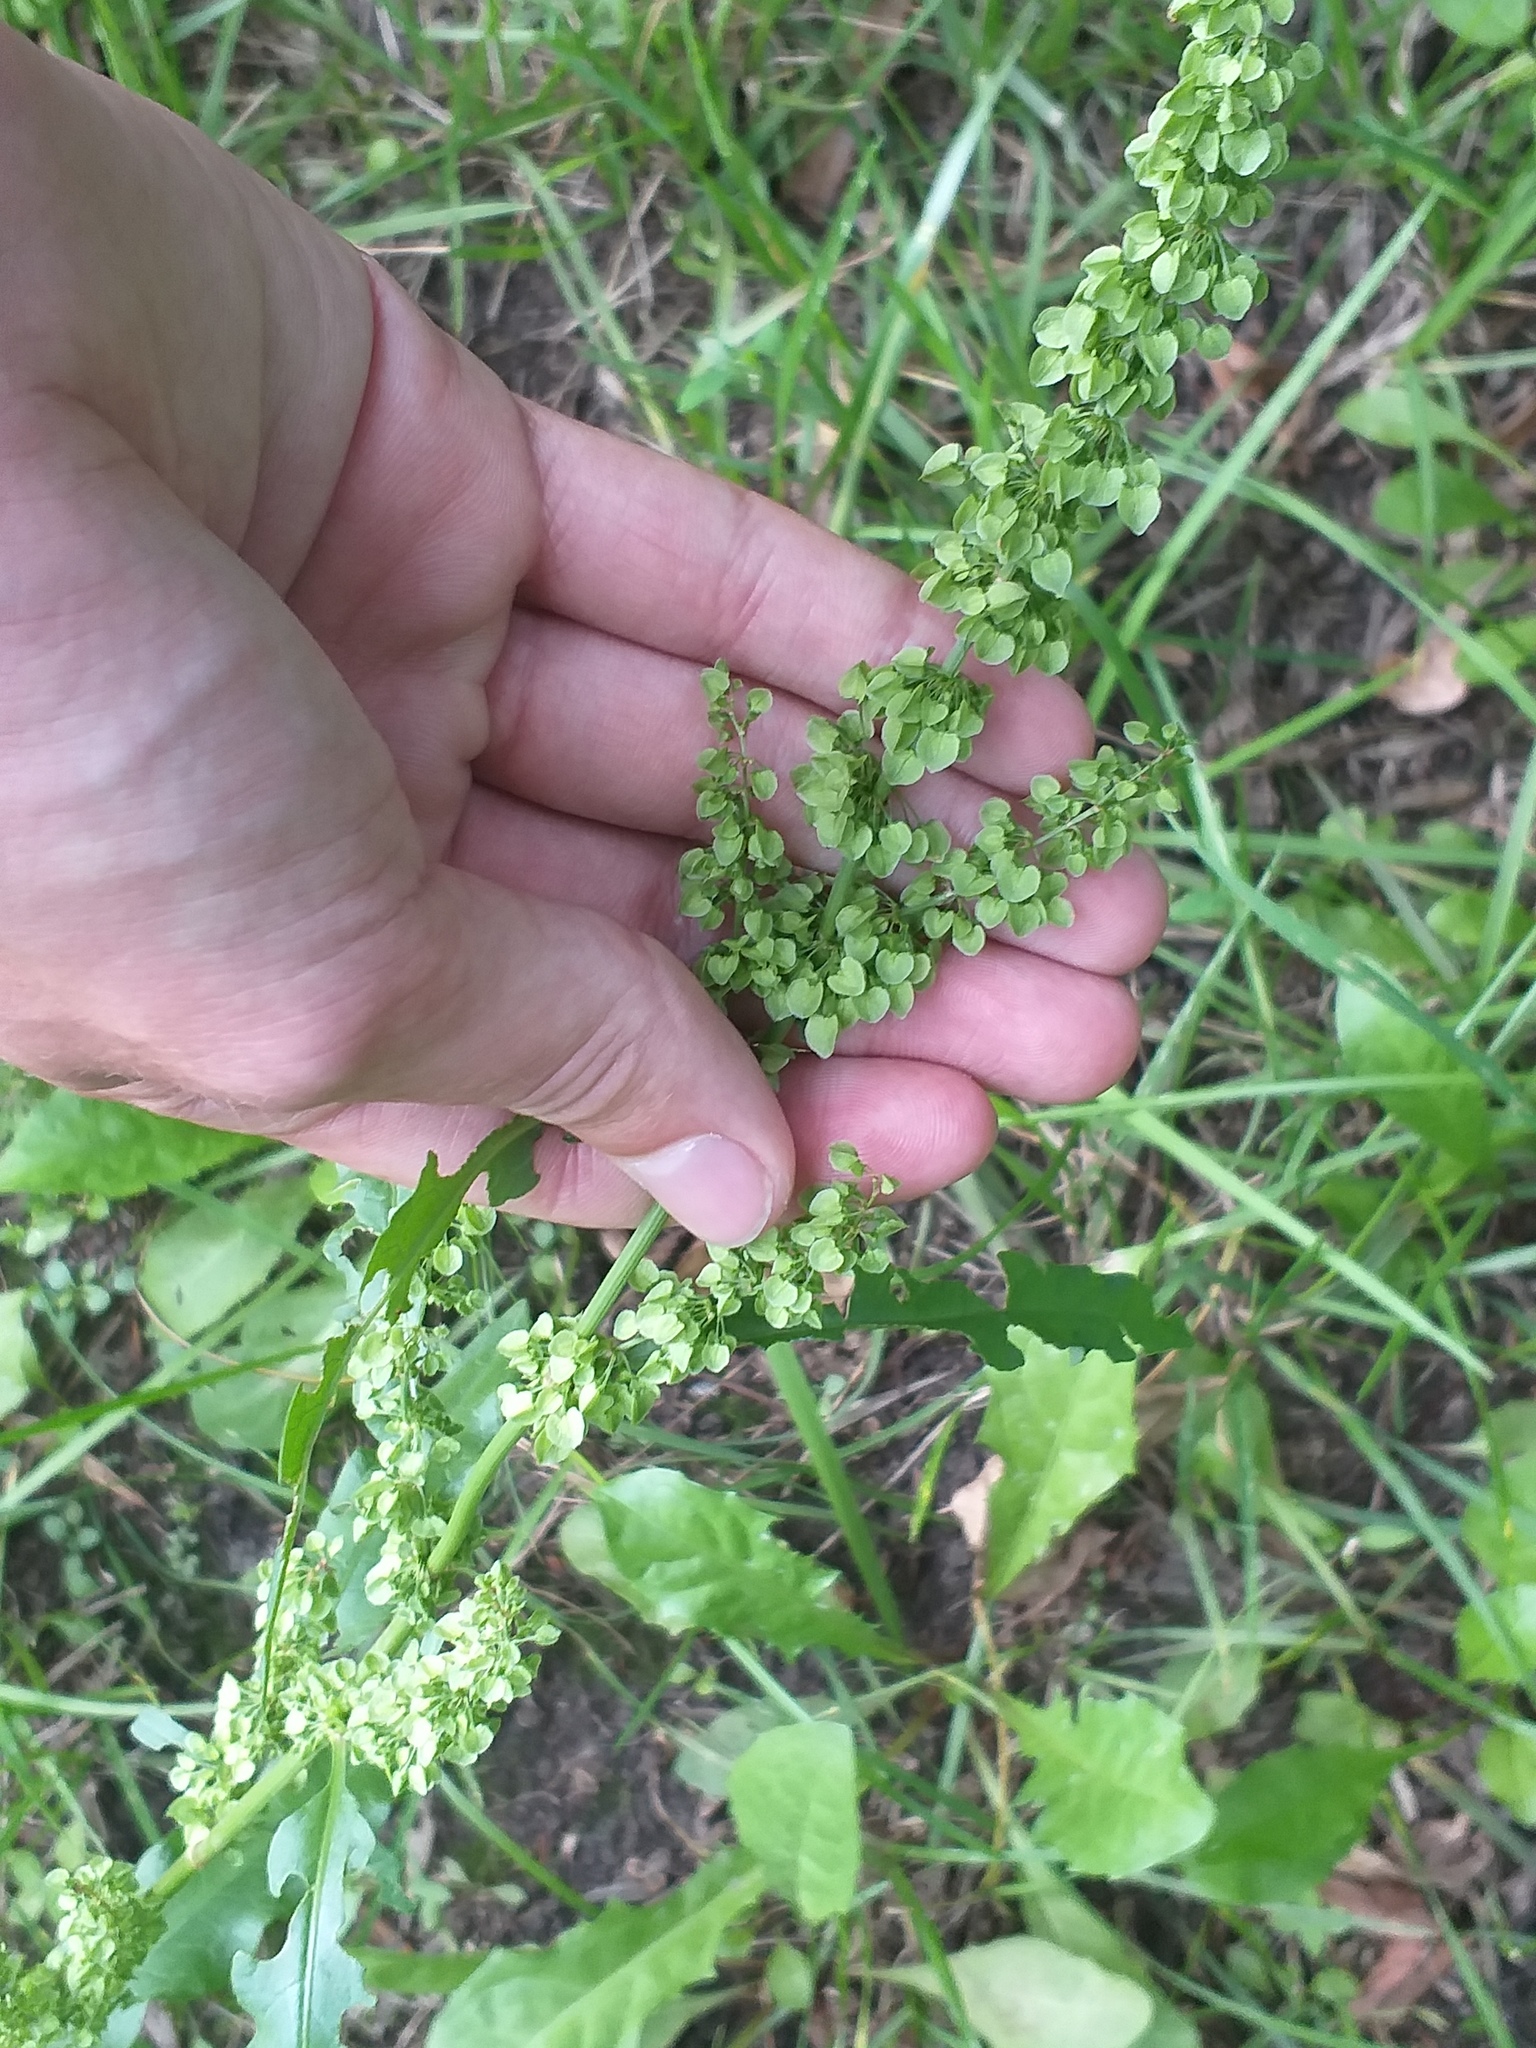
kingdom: Plantae
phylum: Tracheophyta
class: Magnoliopsida
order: Caryophyllales
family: Polygonaceae
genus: Rumex
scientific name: Rumex pseudonatronatus
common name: Field dock
